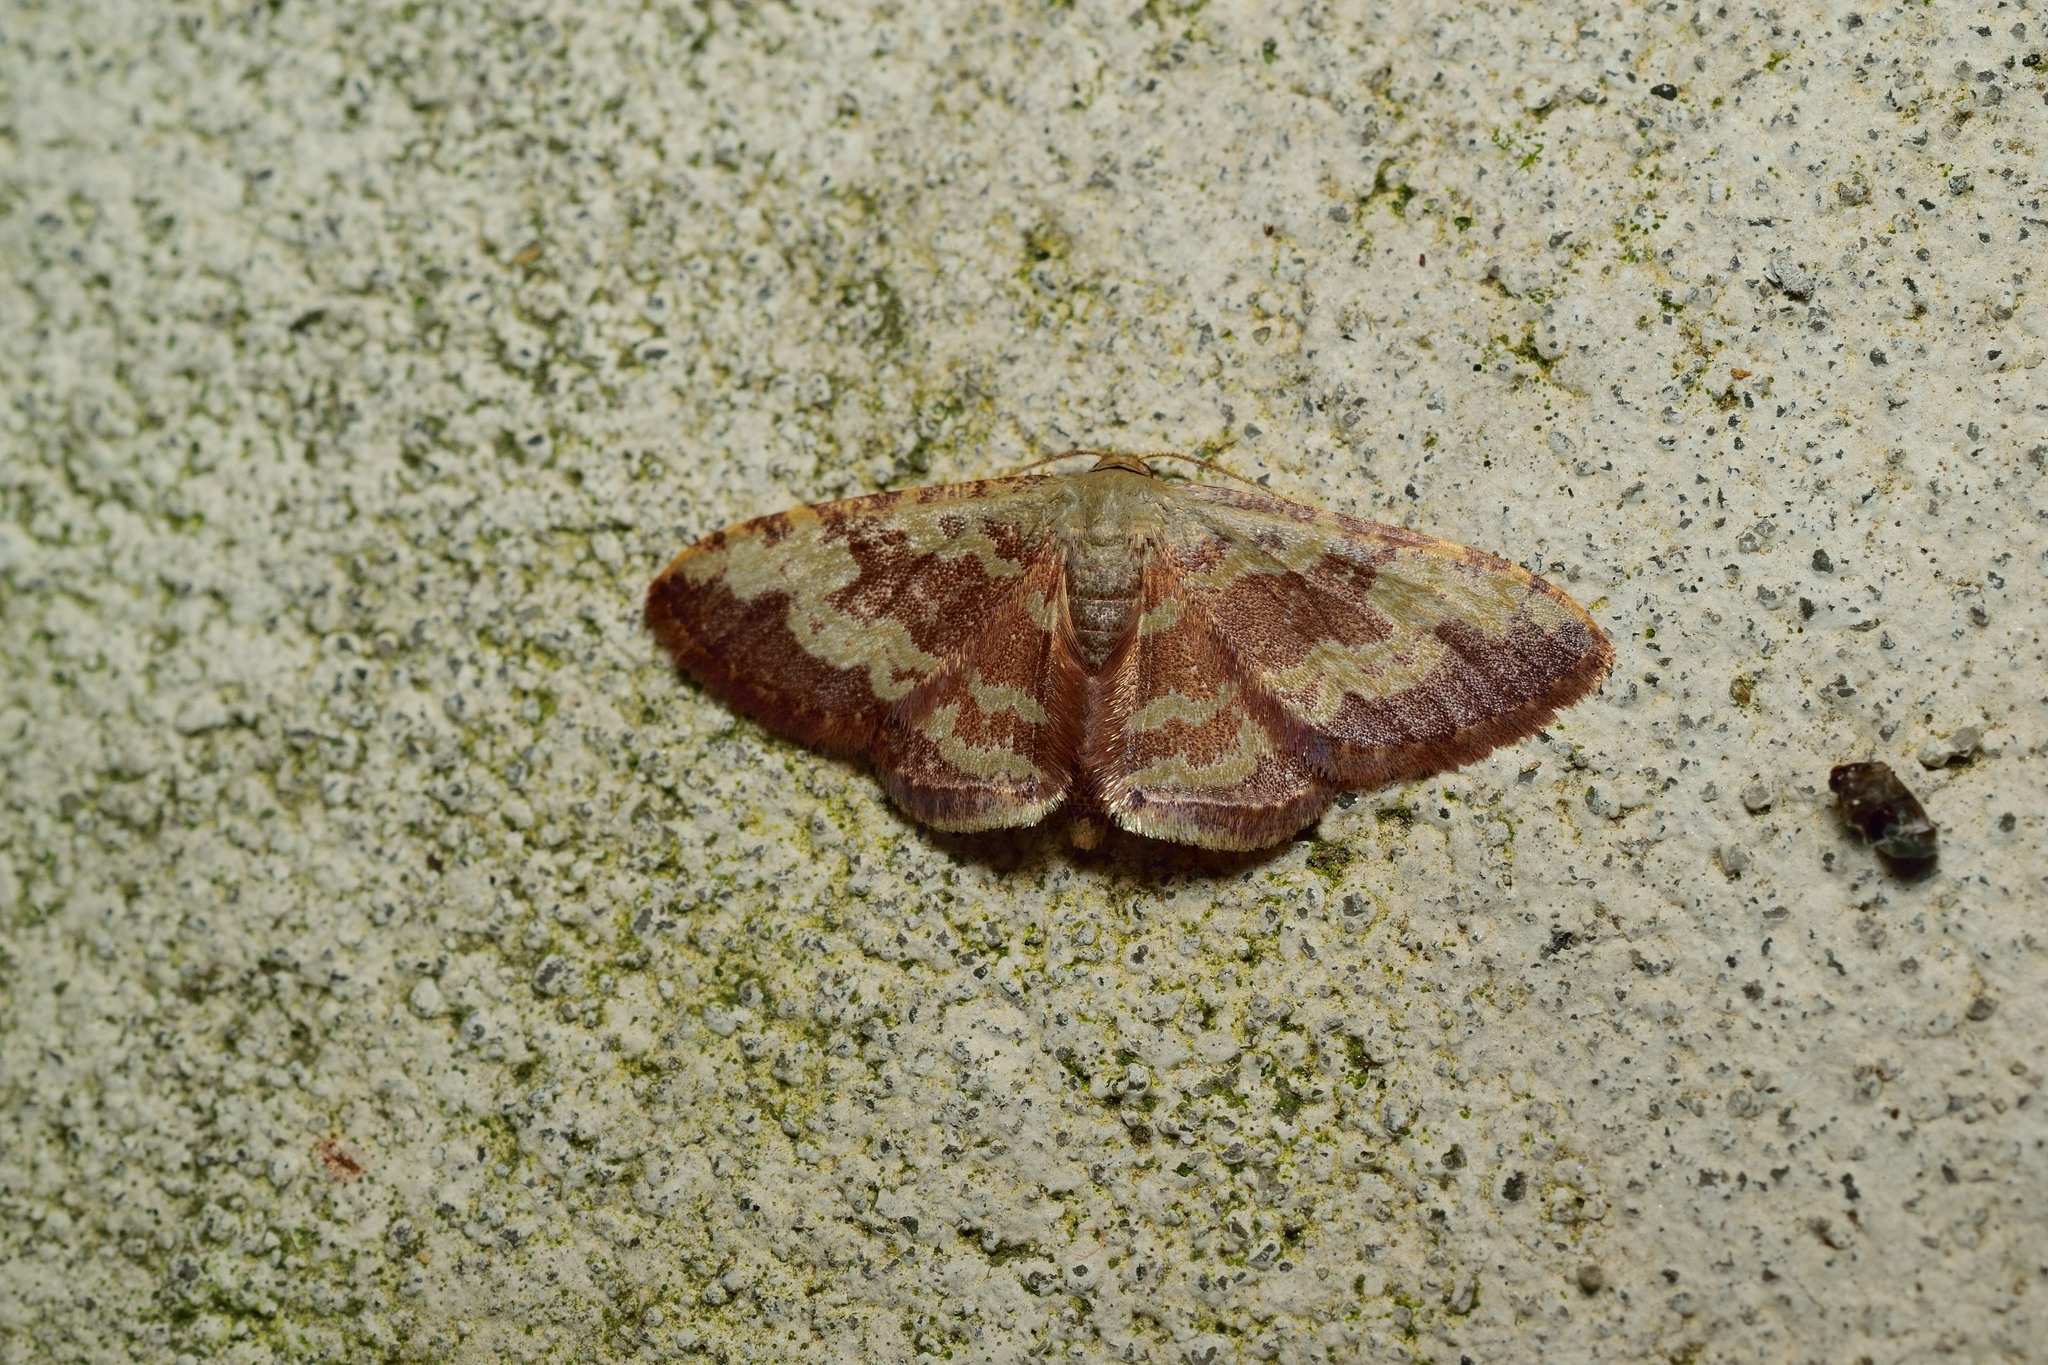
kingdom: Animalia
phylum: Arthropoda
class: Insecta
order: Lepidoptera
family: Geometridae
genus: Idaea
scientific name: Idaea vacillata
